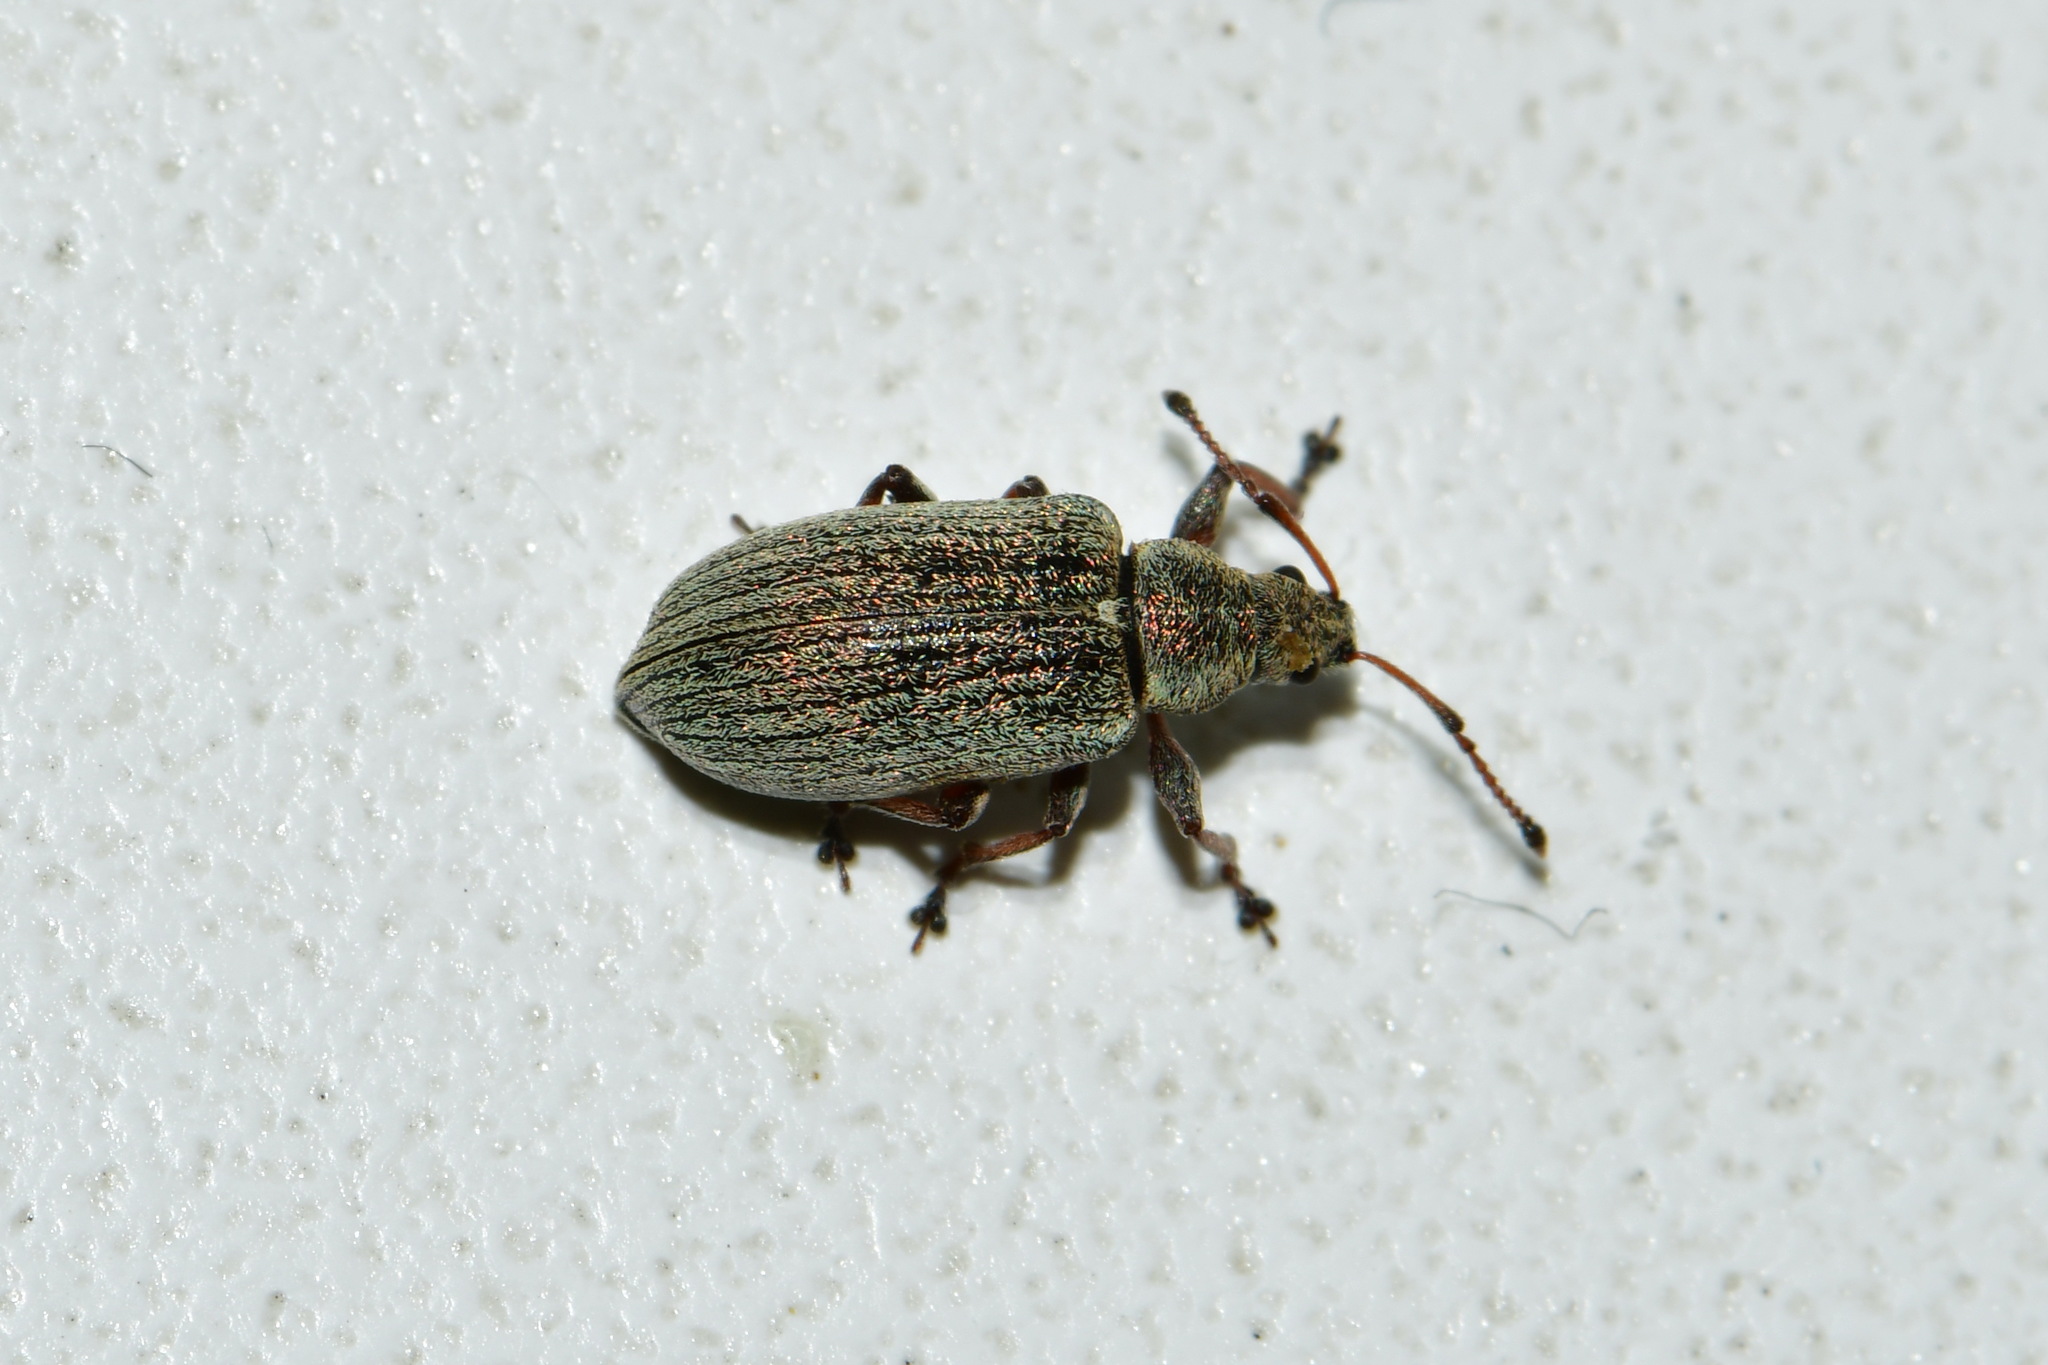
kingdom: Animalia
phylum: Arthropoda
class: Insecta
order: Coleoptera
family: Curculionidae
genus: Phyllobius
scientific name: Phyllobius pyri
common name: Common leaf weevil
